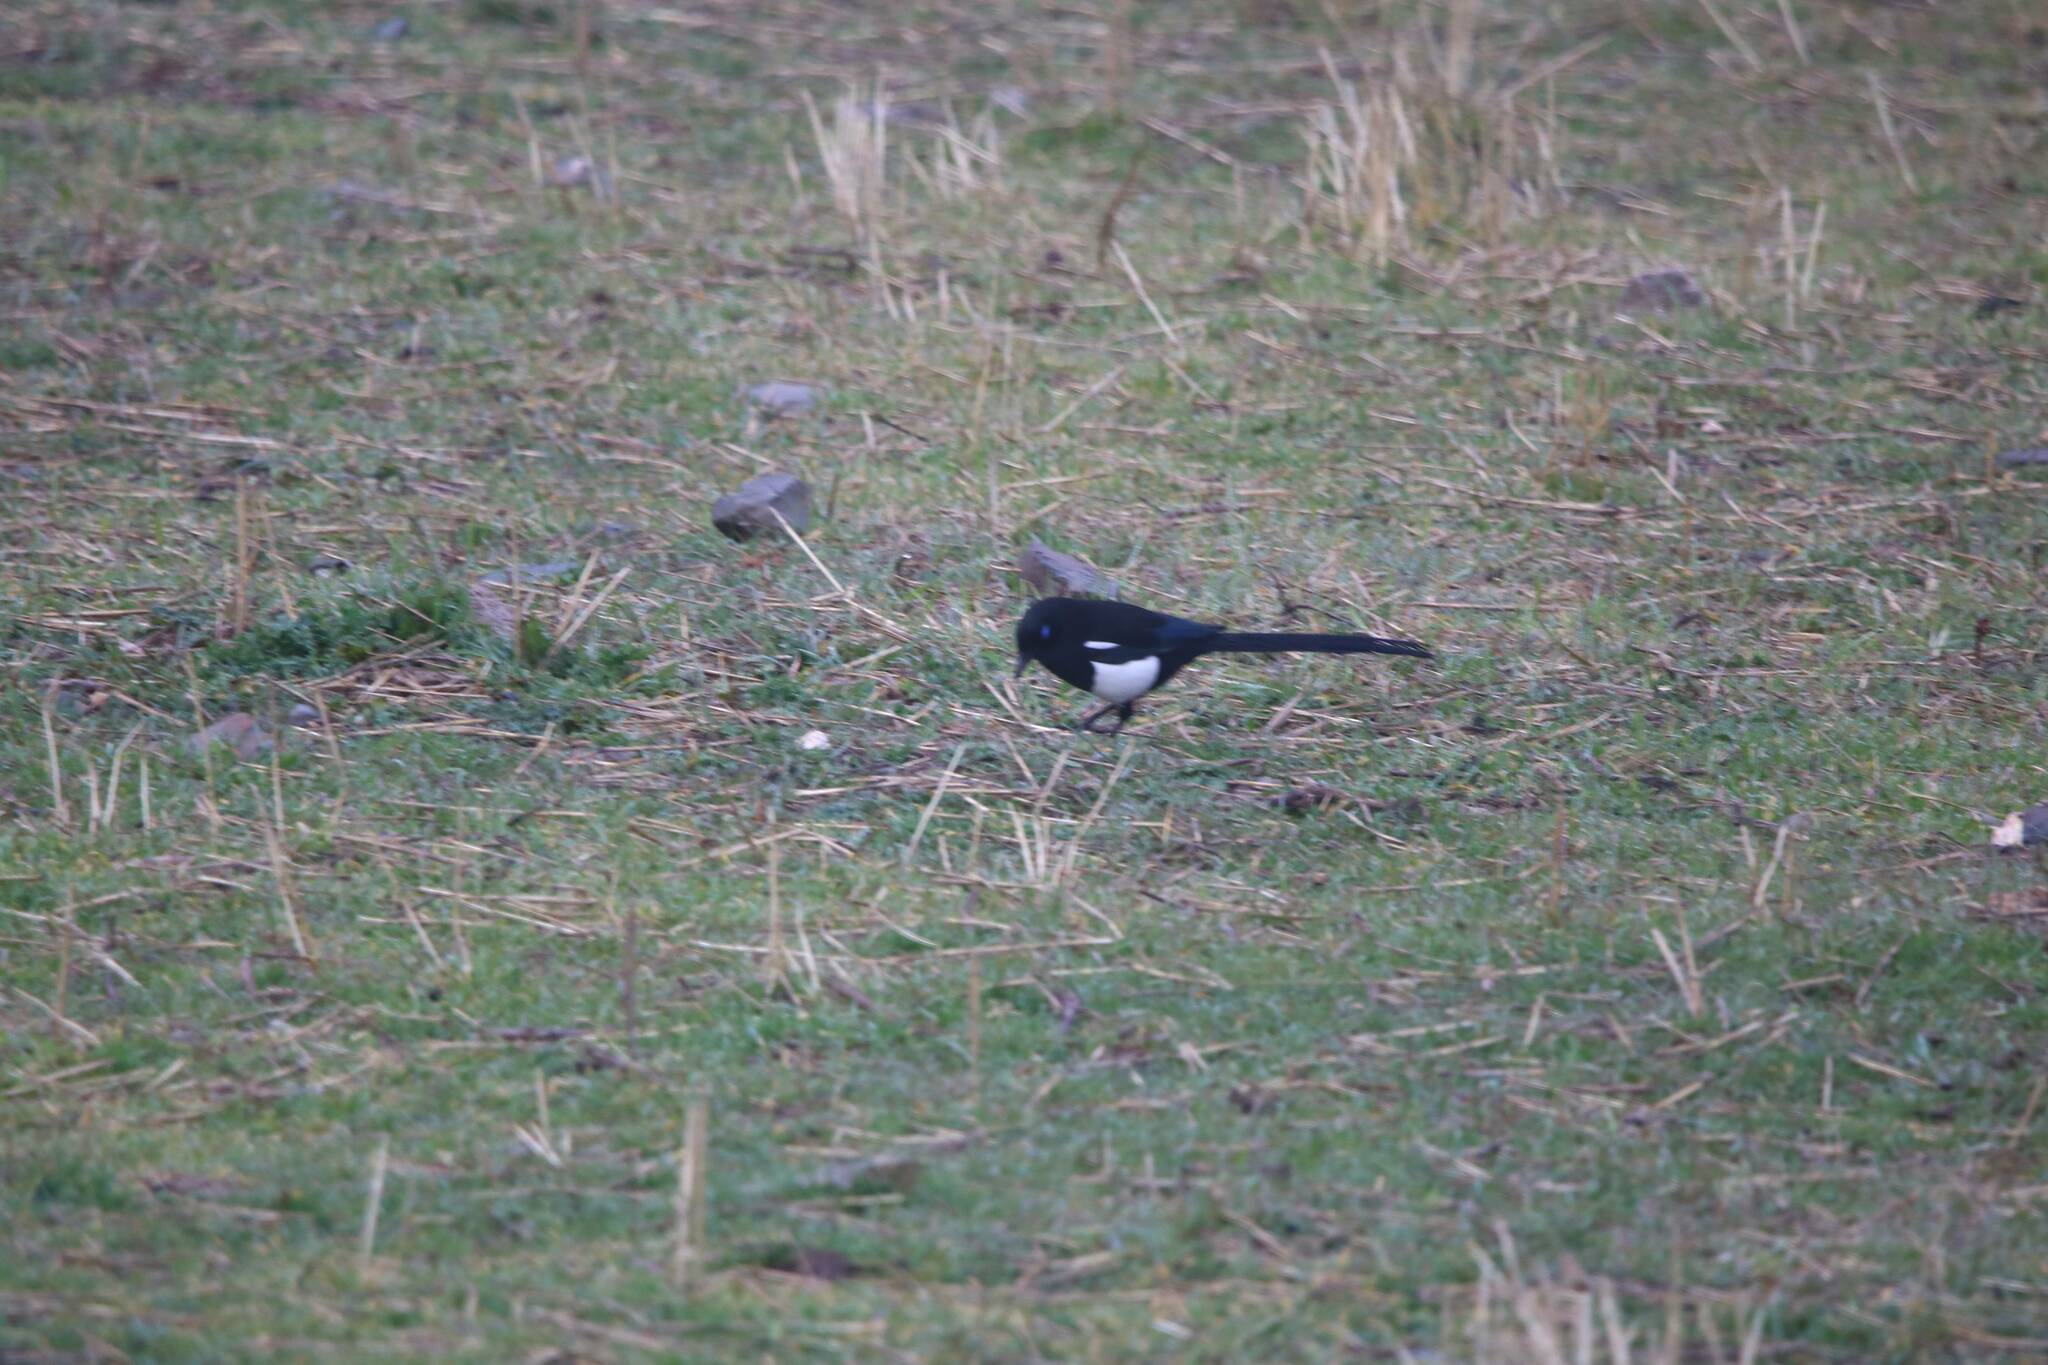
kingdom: Animalia
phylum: Chordata
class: Aves
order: Passeriformes
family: Corvidae
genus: Pica
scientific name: Pica mauritanica
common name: Maghreb magpie
